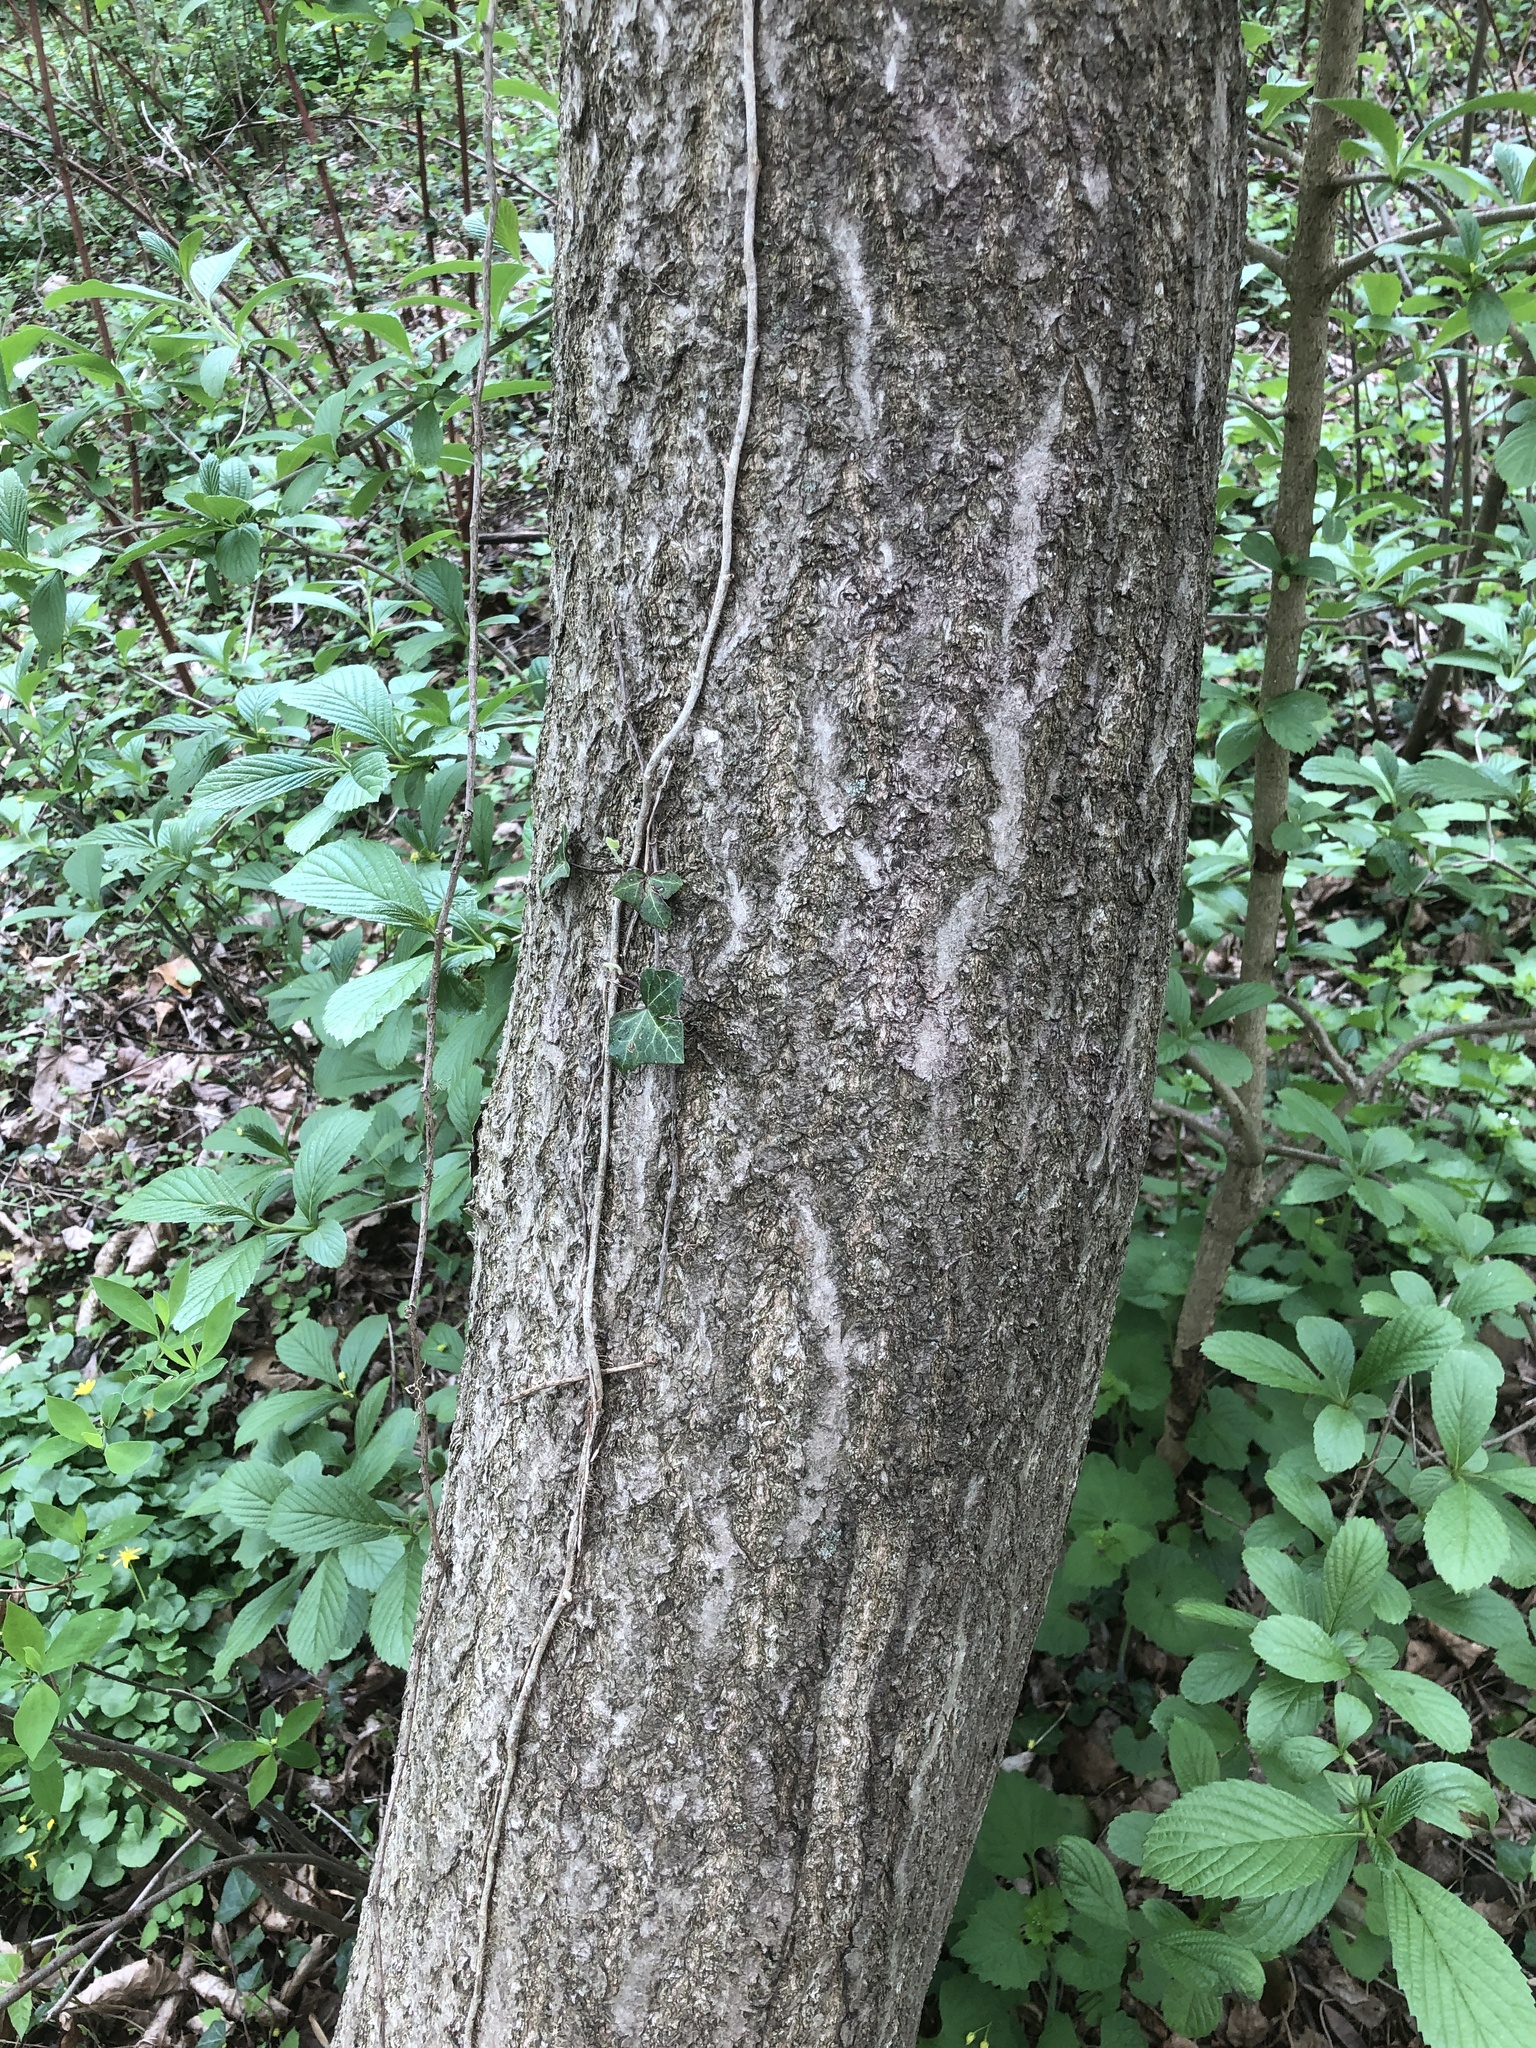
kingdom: Plantae
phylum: Tracheophyta
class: Magnoliopsida
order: Lamiales
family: Paulowniaceae
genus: Paulownia
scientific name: Paulownia tomentosa
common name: Foxglove-tree
